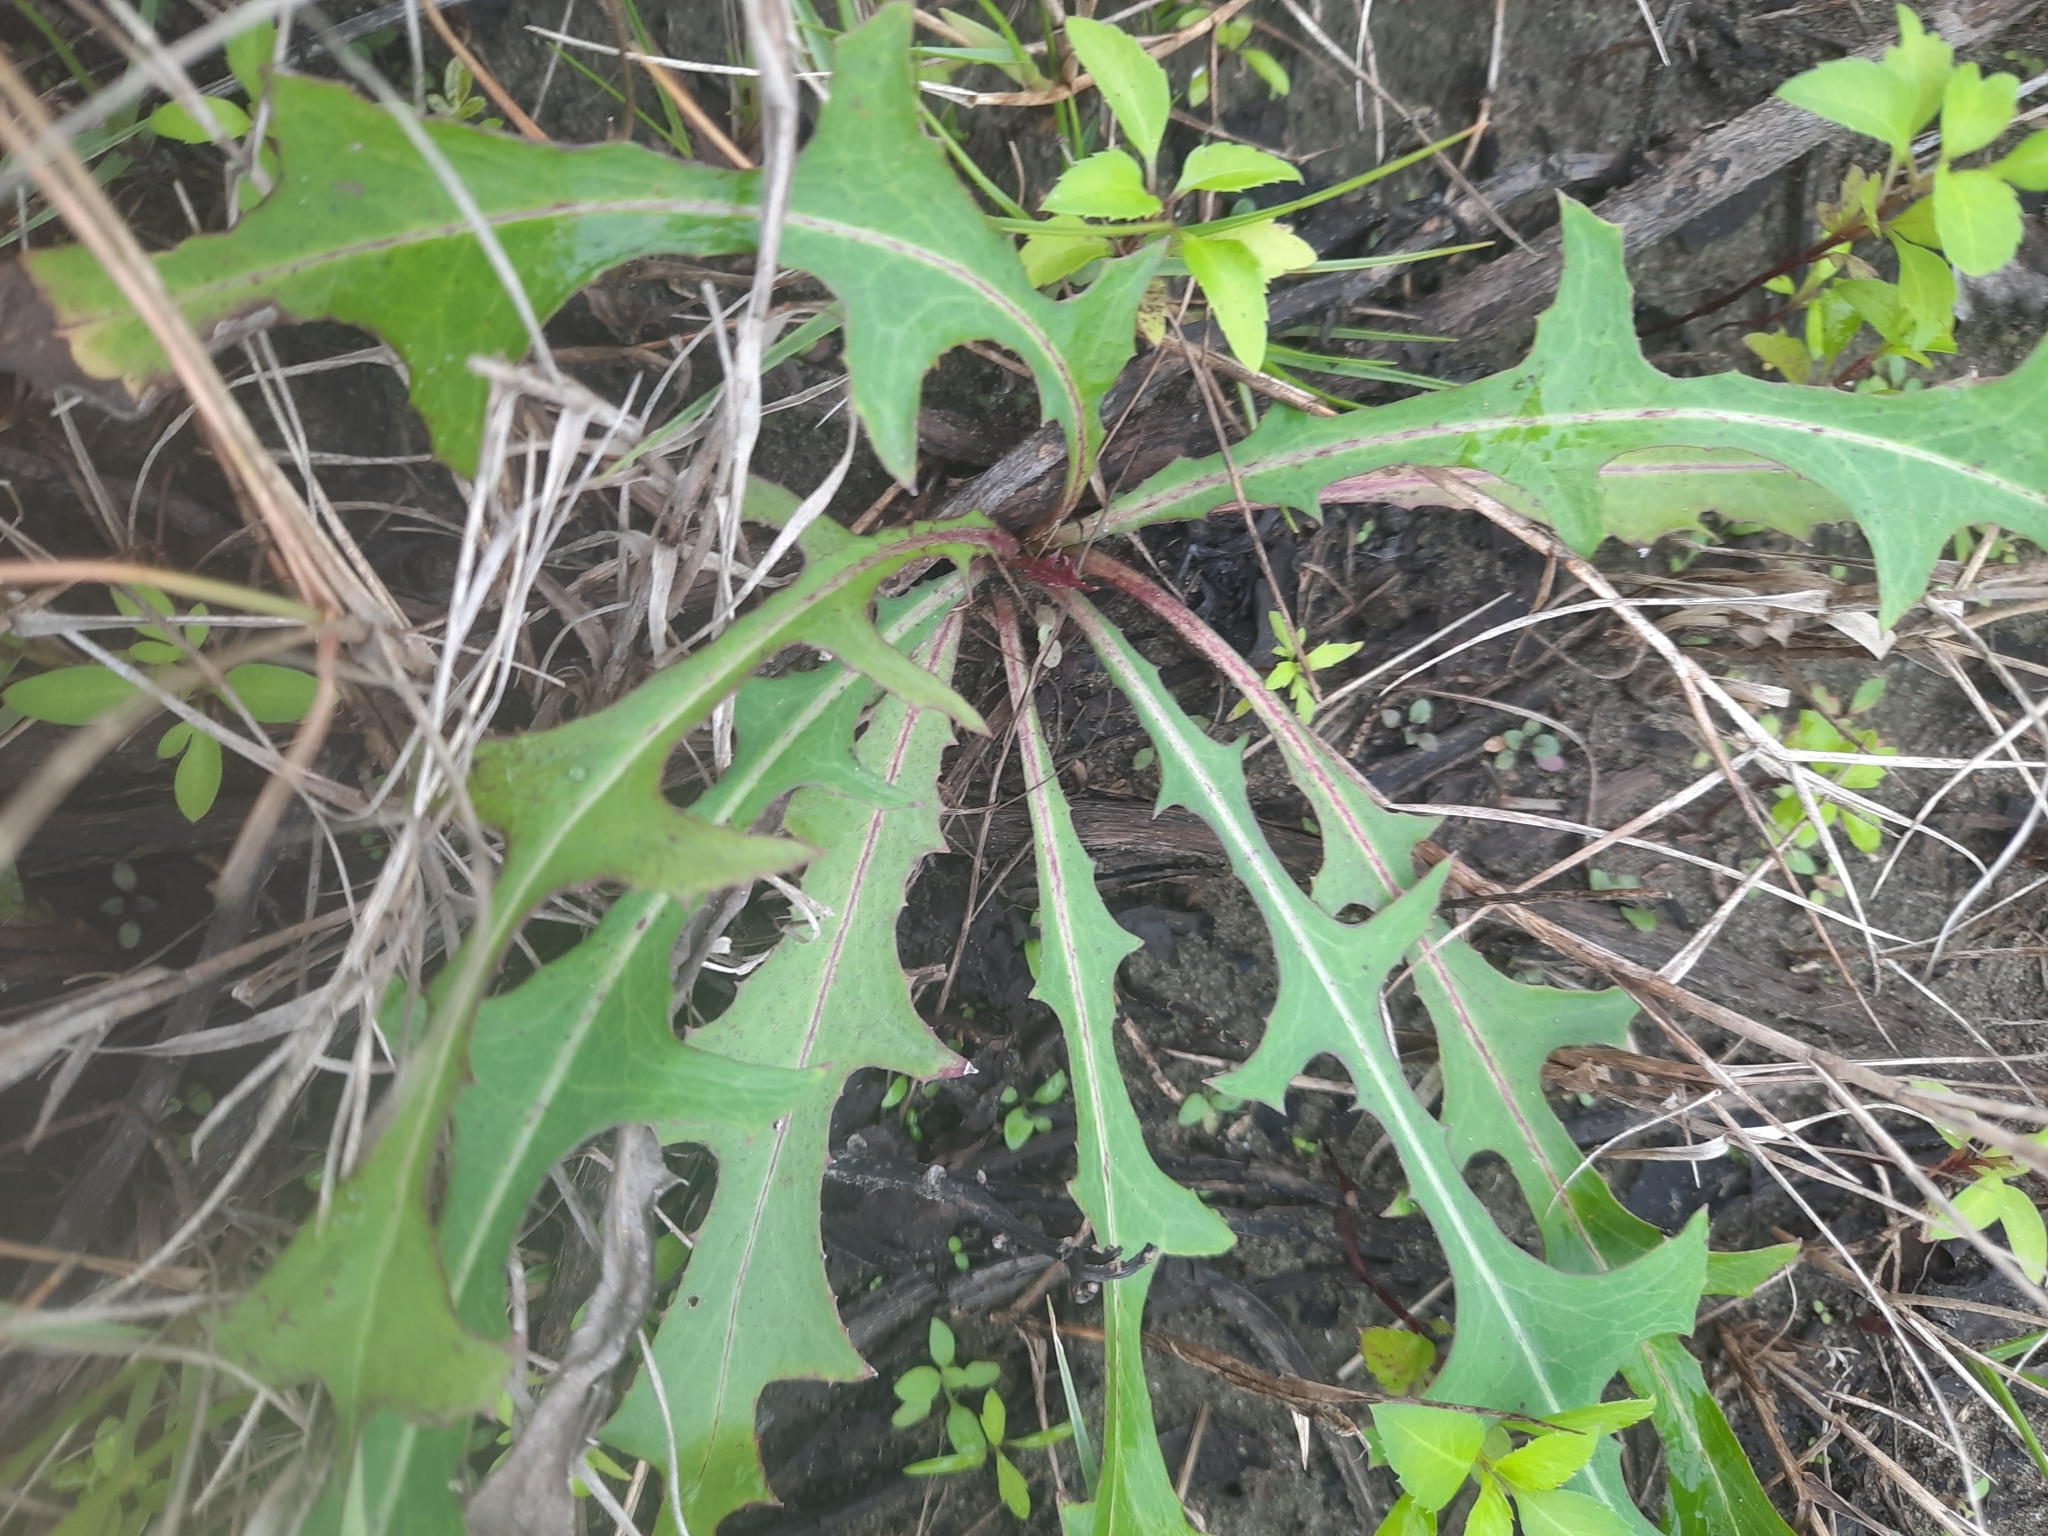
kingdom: Plantae
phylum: Tracheophyta
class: Magnoliopsida
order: Asterales
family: Asteraceae
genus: Lactuca
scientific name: Lactuca indica
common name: Wild lettuce
